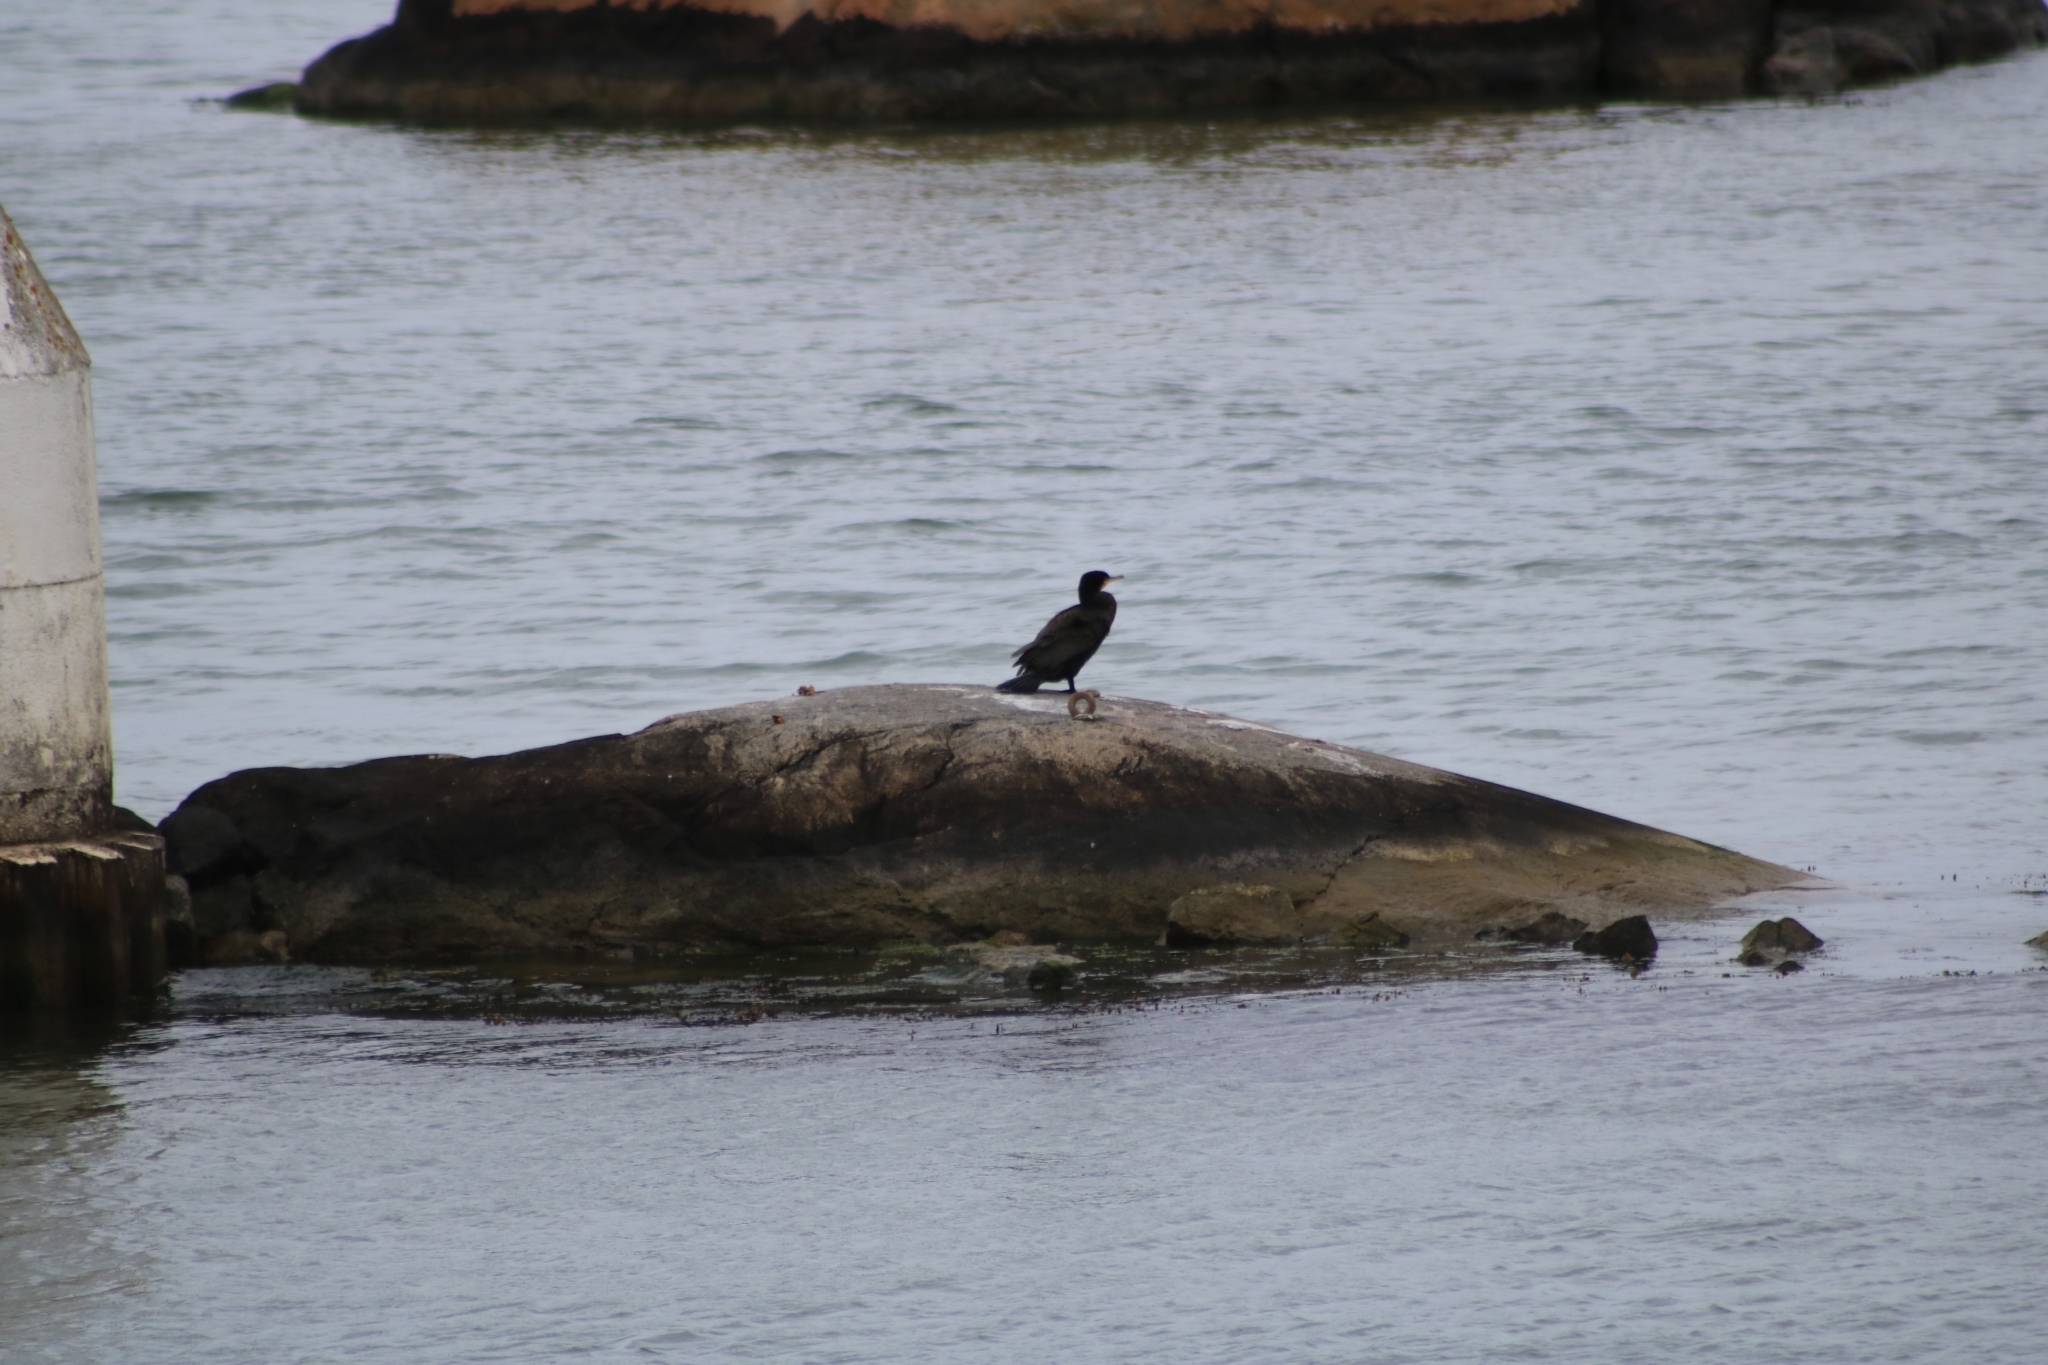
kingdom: Animalia
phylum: Chordata
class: Aves
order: Suliformes
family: Phalacrocoracidae
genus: Phalacrocorax
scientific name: Phalacrocorax carbo
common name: Great cormorant
